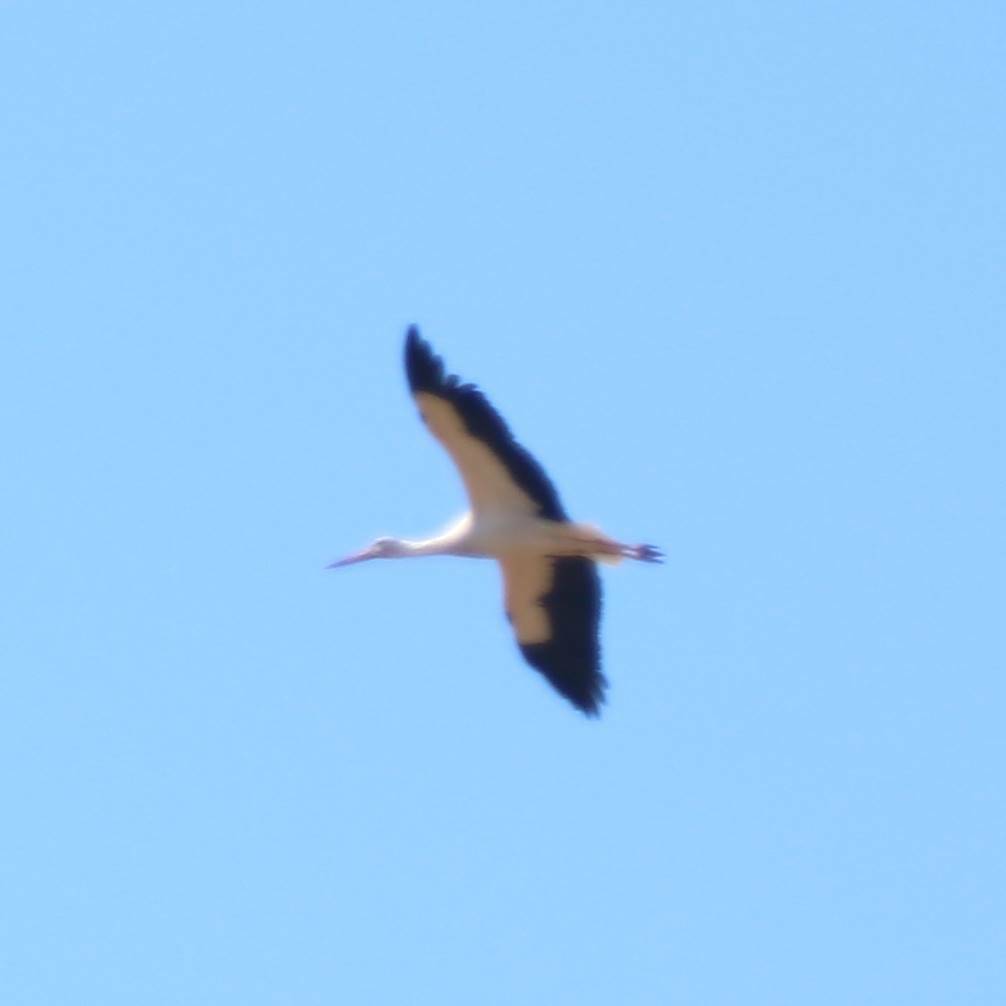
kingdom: Animalia
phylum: Chordata
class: Aves
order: Ciconiiformes
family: Ciconiidae
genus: Ciconia
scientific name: Ciconia ciconia
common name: White stork
